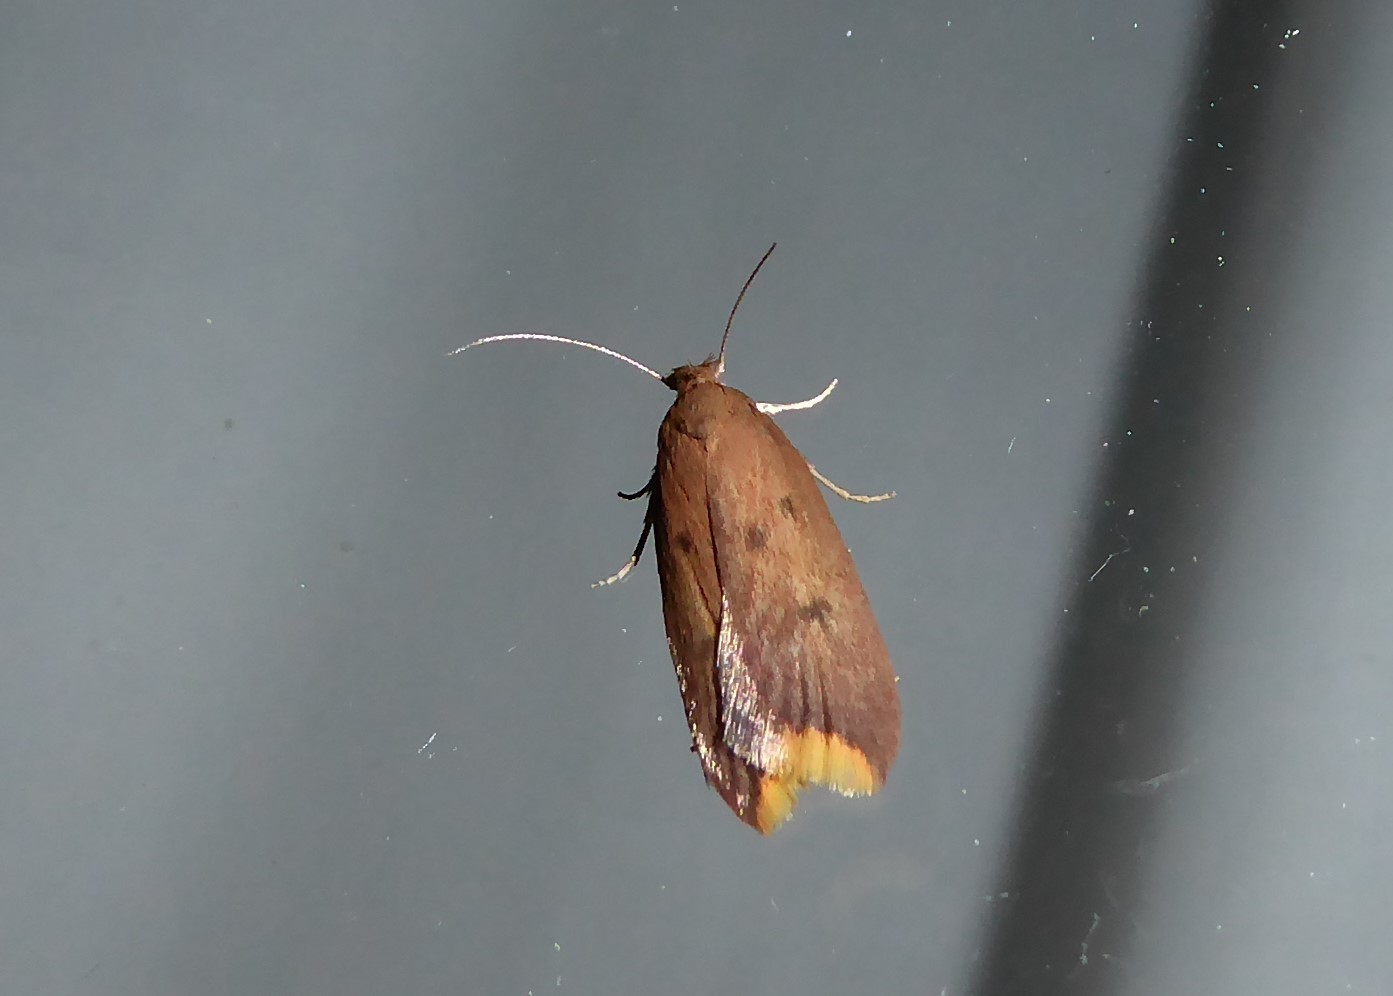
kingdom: Animalia
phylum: Arthropoda
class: Insecta
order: Lepidoptera
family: Oecophoridae
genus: Tachystola
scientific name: Tachystola acroxantha
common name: Ruddy streak
